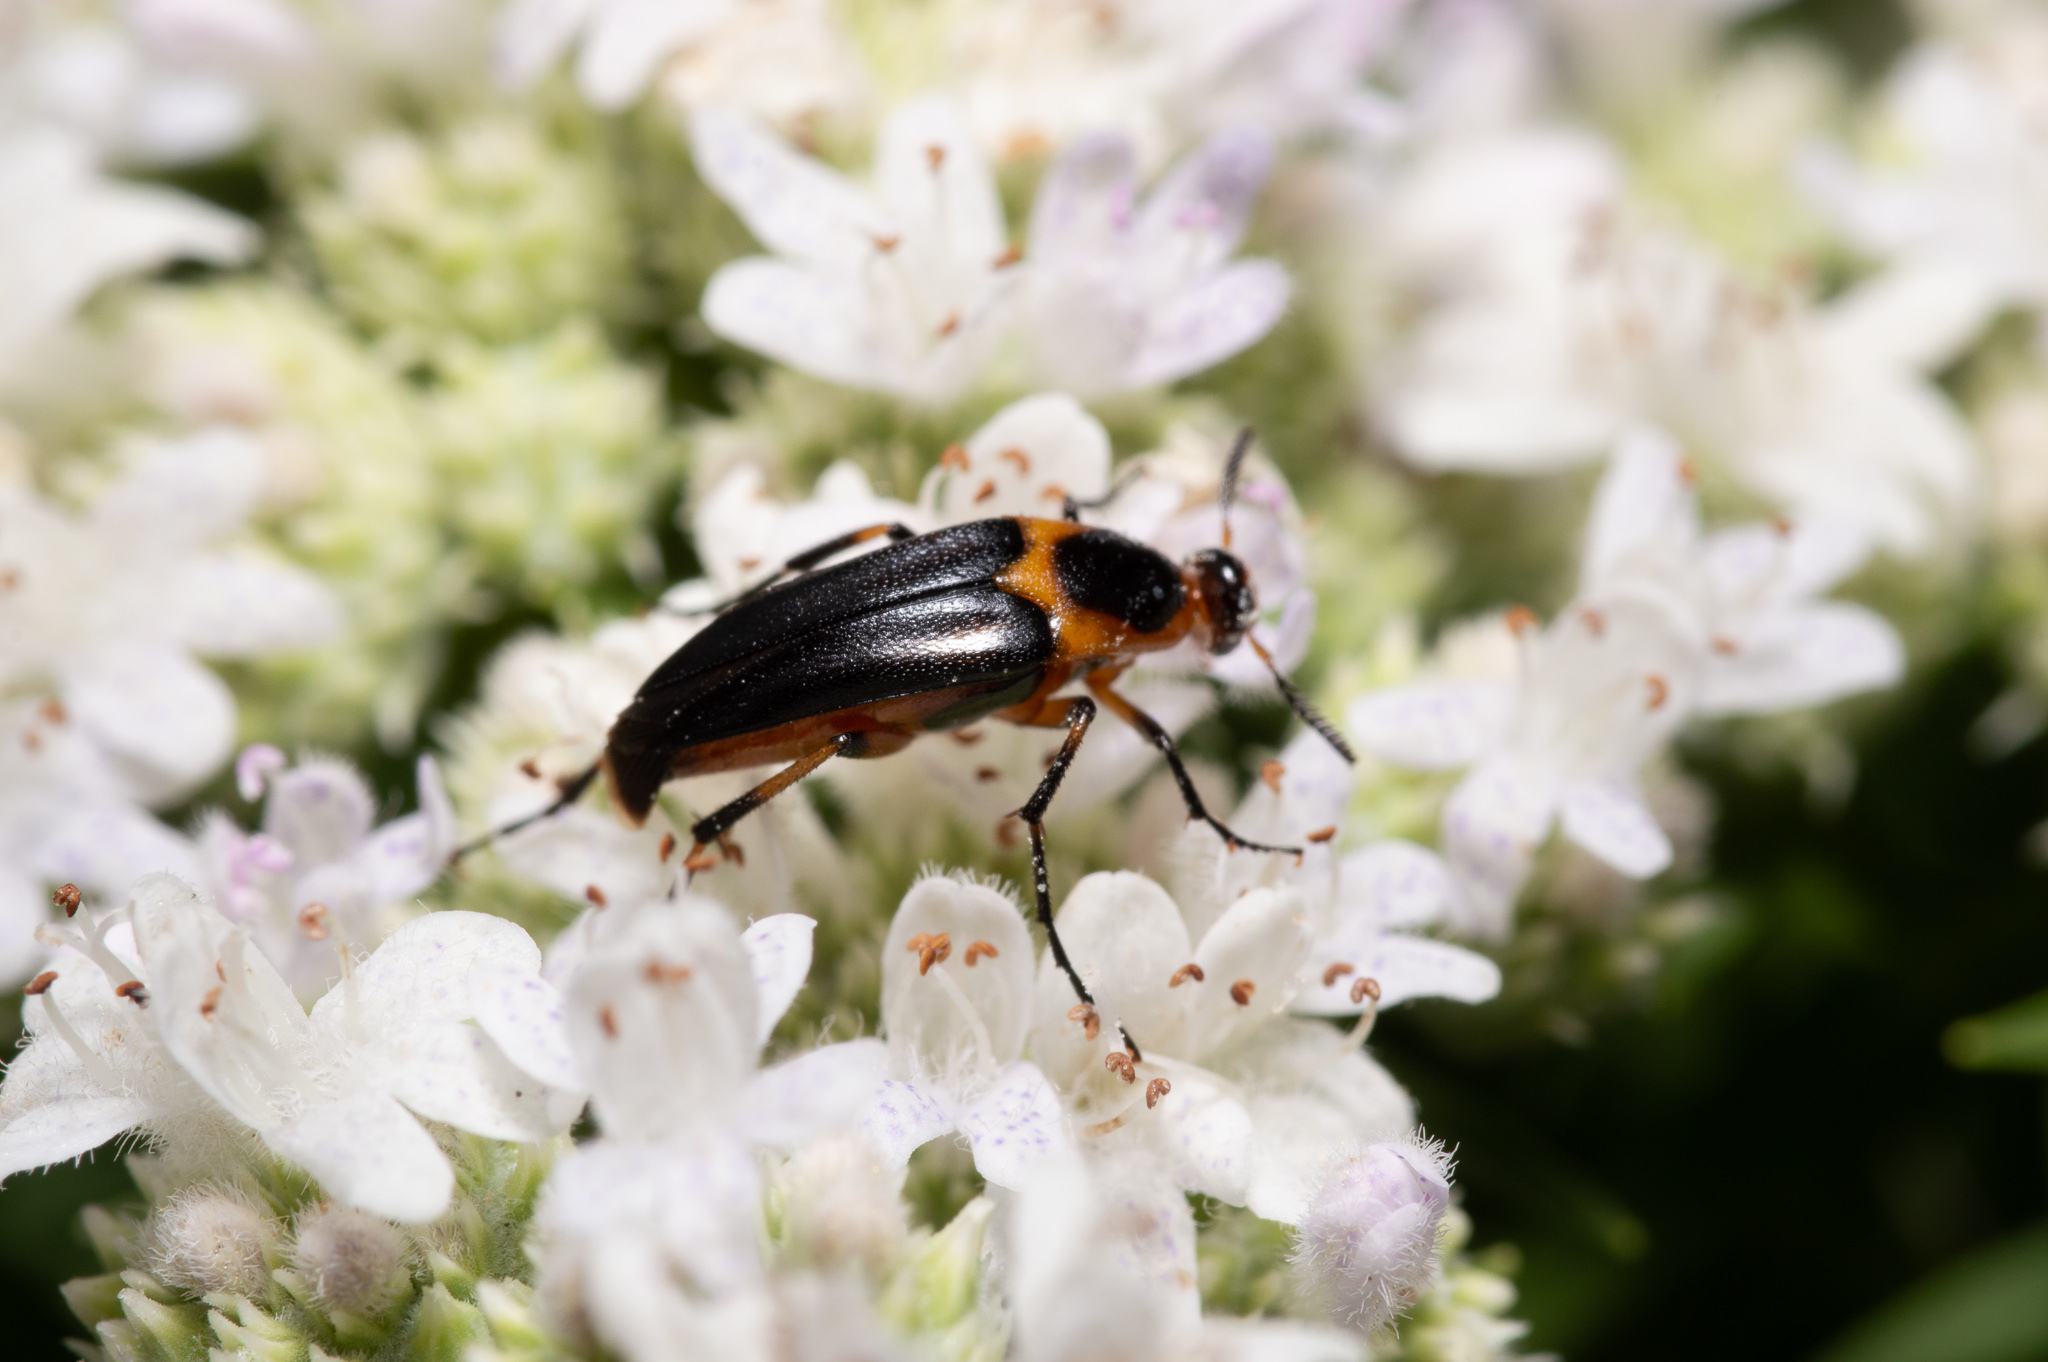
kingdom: Animalia
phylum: Arthropoda
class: Insecta
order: Coleoptera
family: Ripiphoridae
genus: Macrosiagon
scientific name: Macrosiagon limbatum
